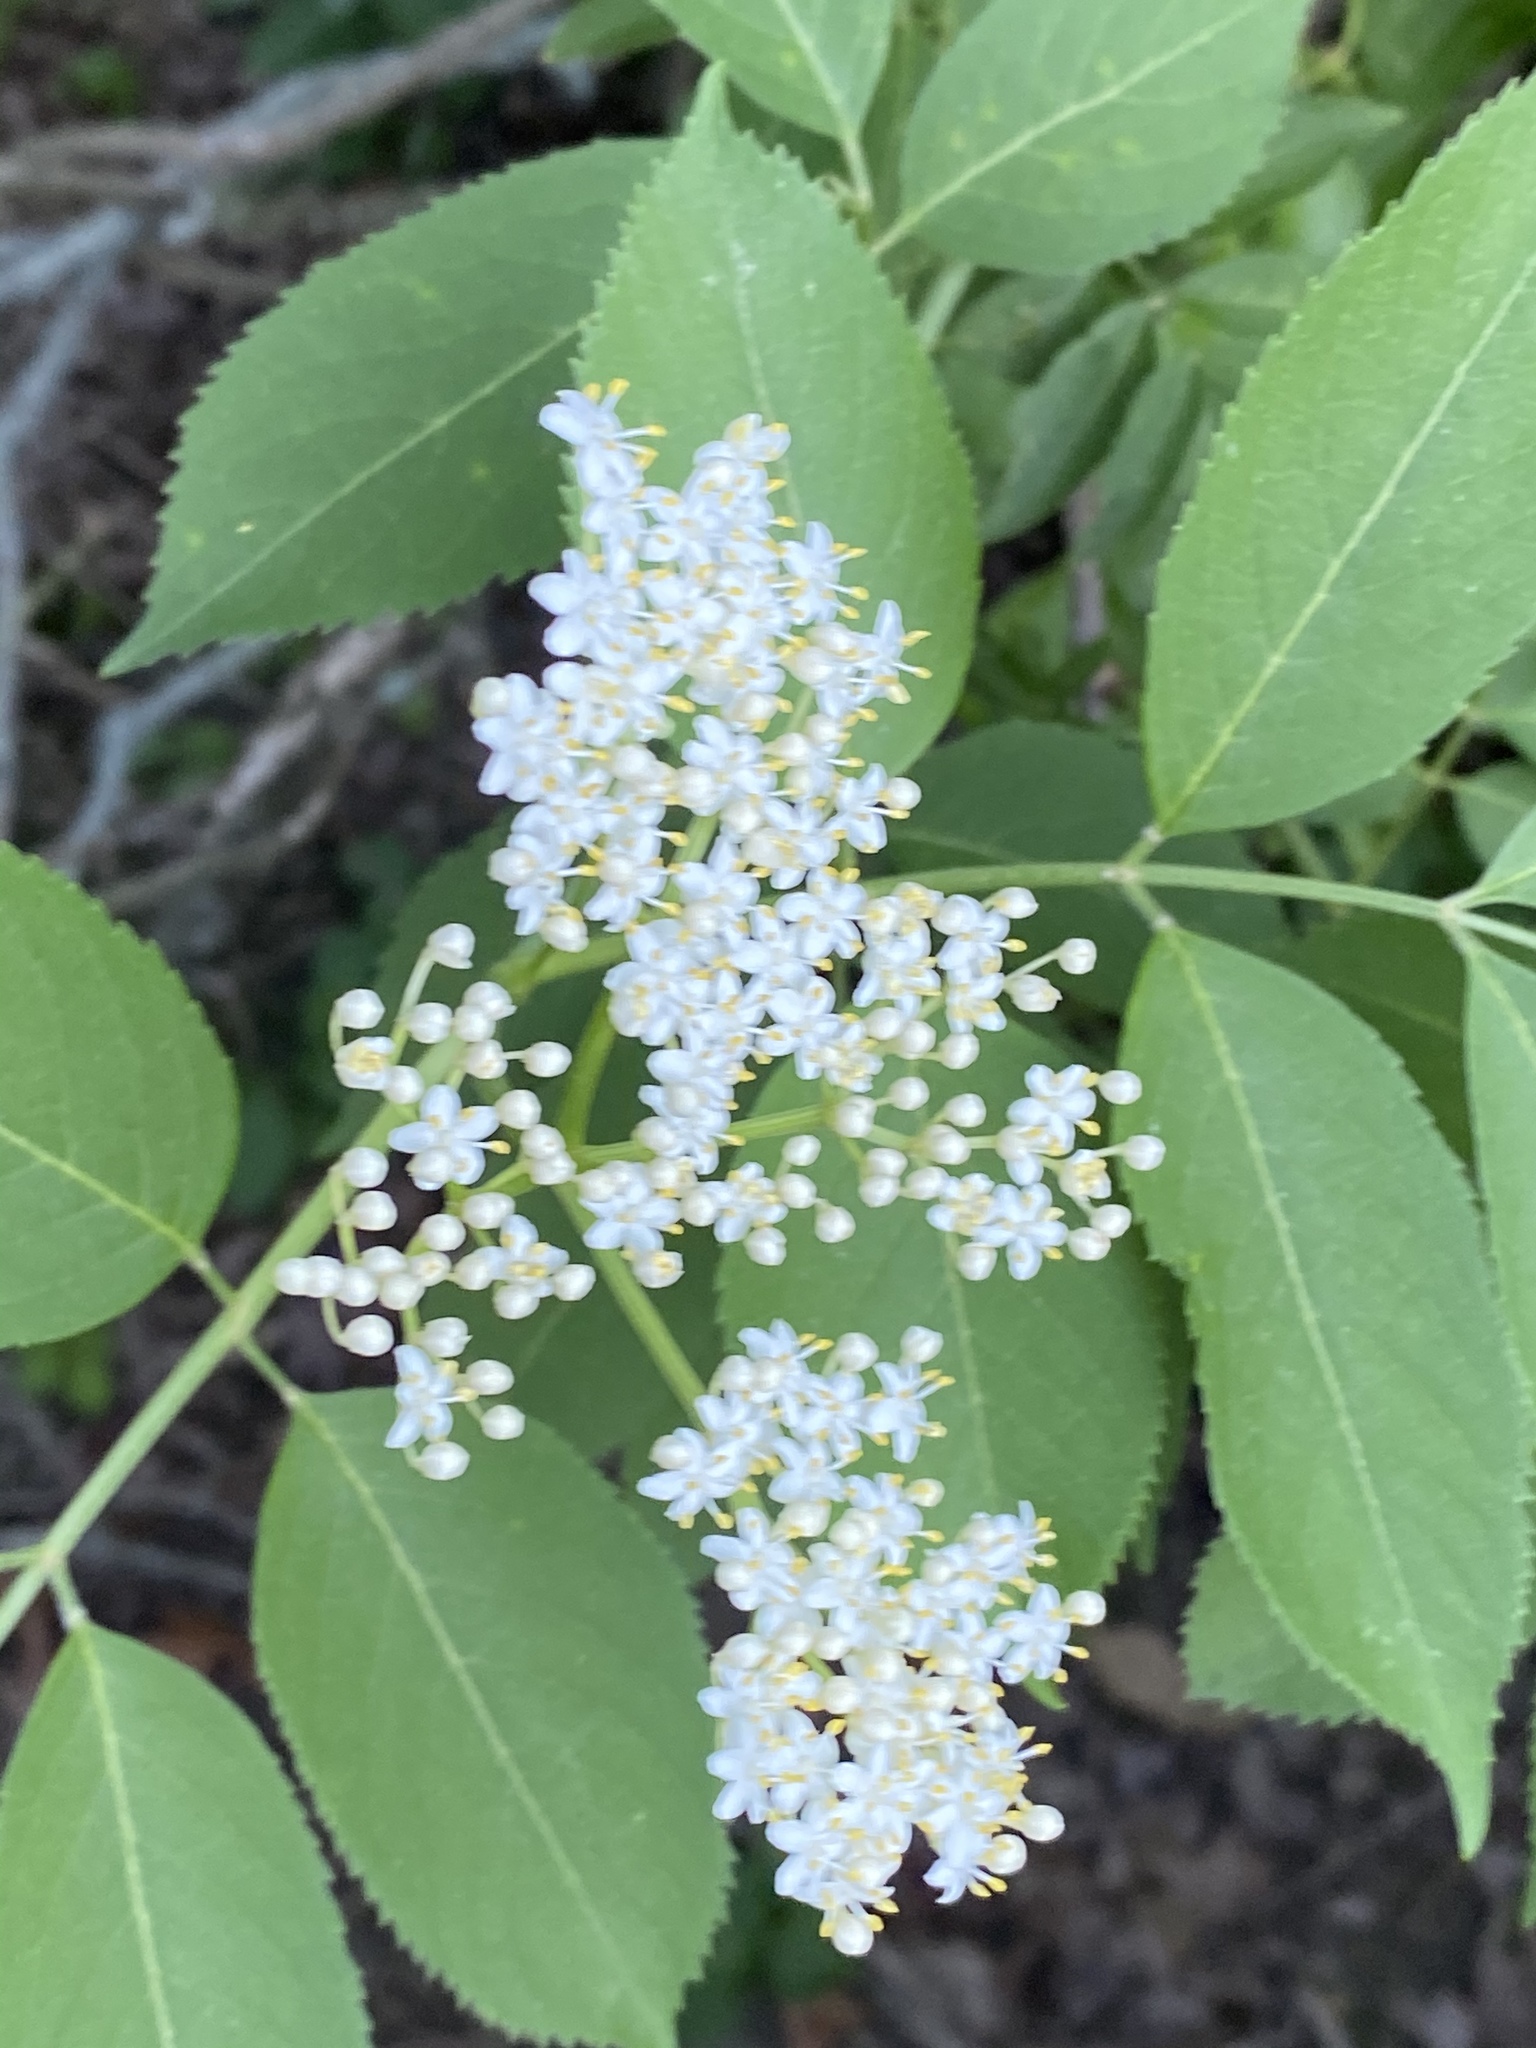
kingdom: Plantae
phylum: Tracheophyta
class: Magnoliopsida
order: Dipsacales
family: Viburnaceae
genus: Sambucus
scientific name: Sambucus canadensis
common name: American elder
